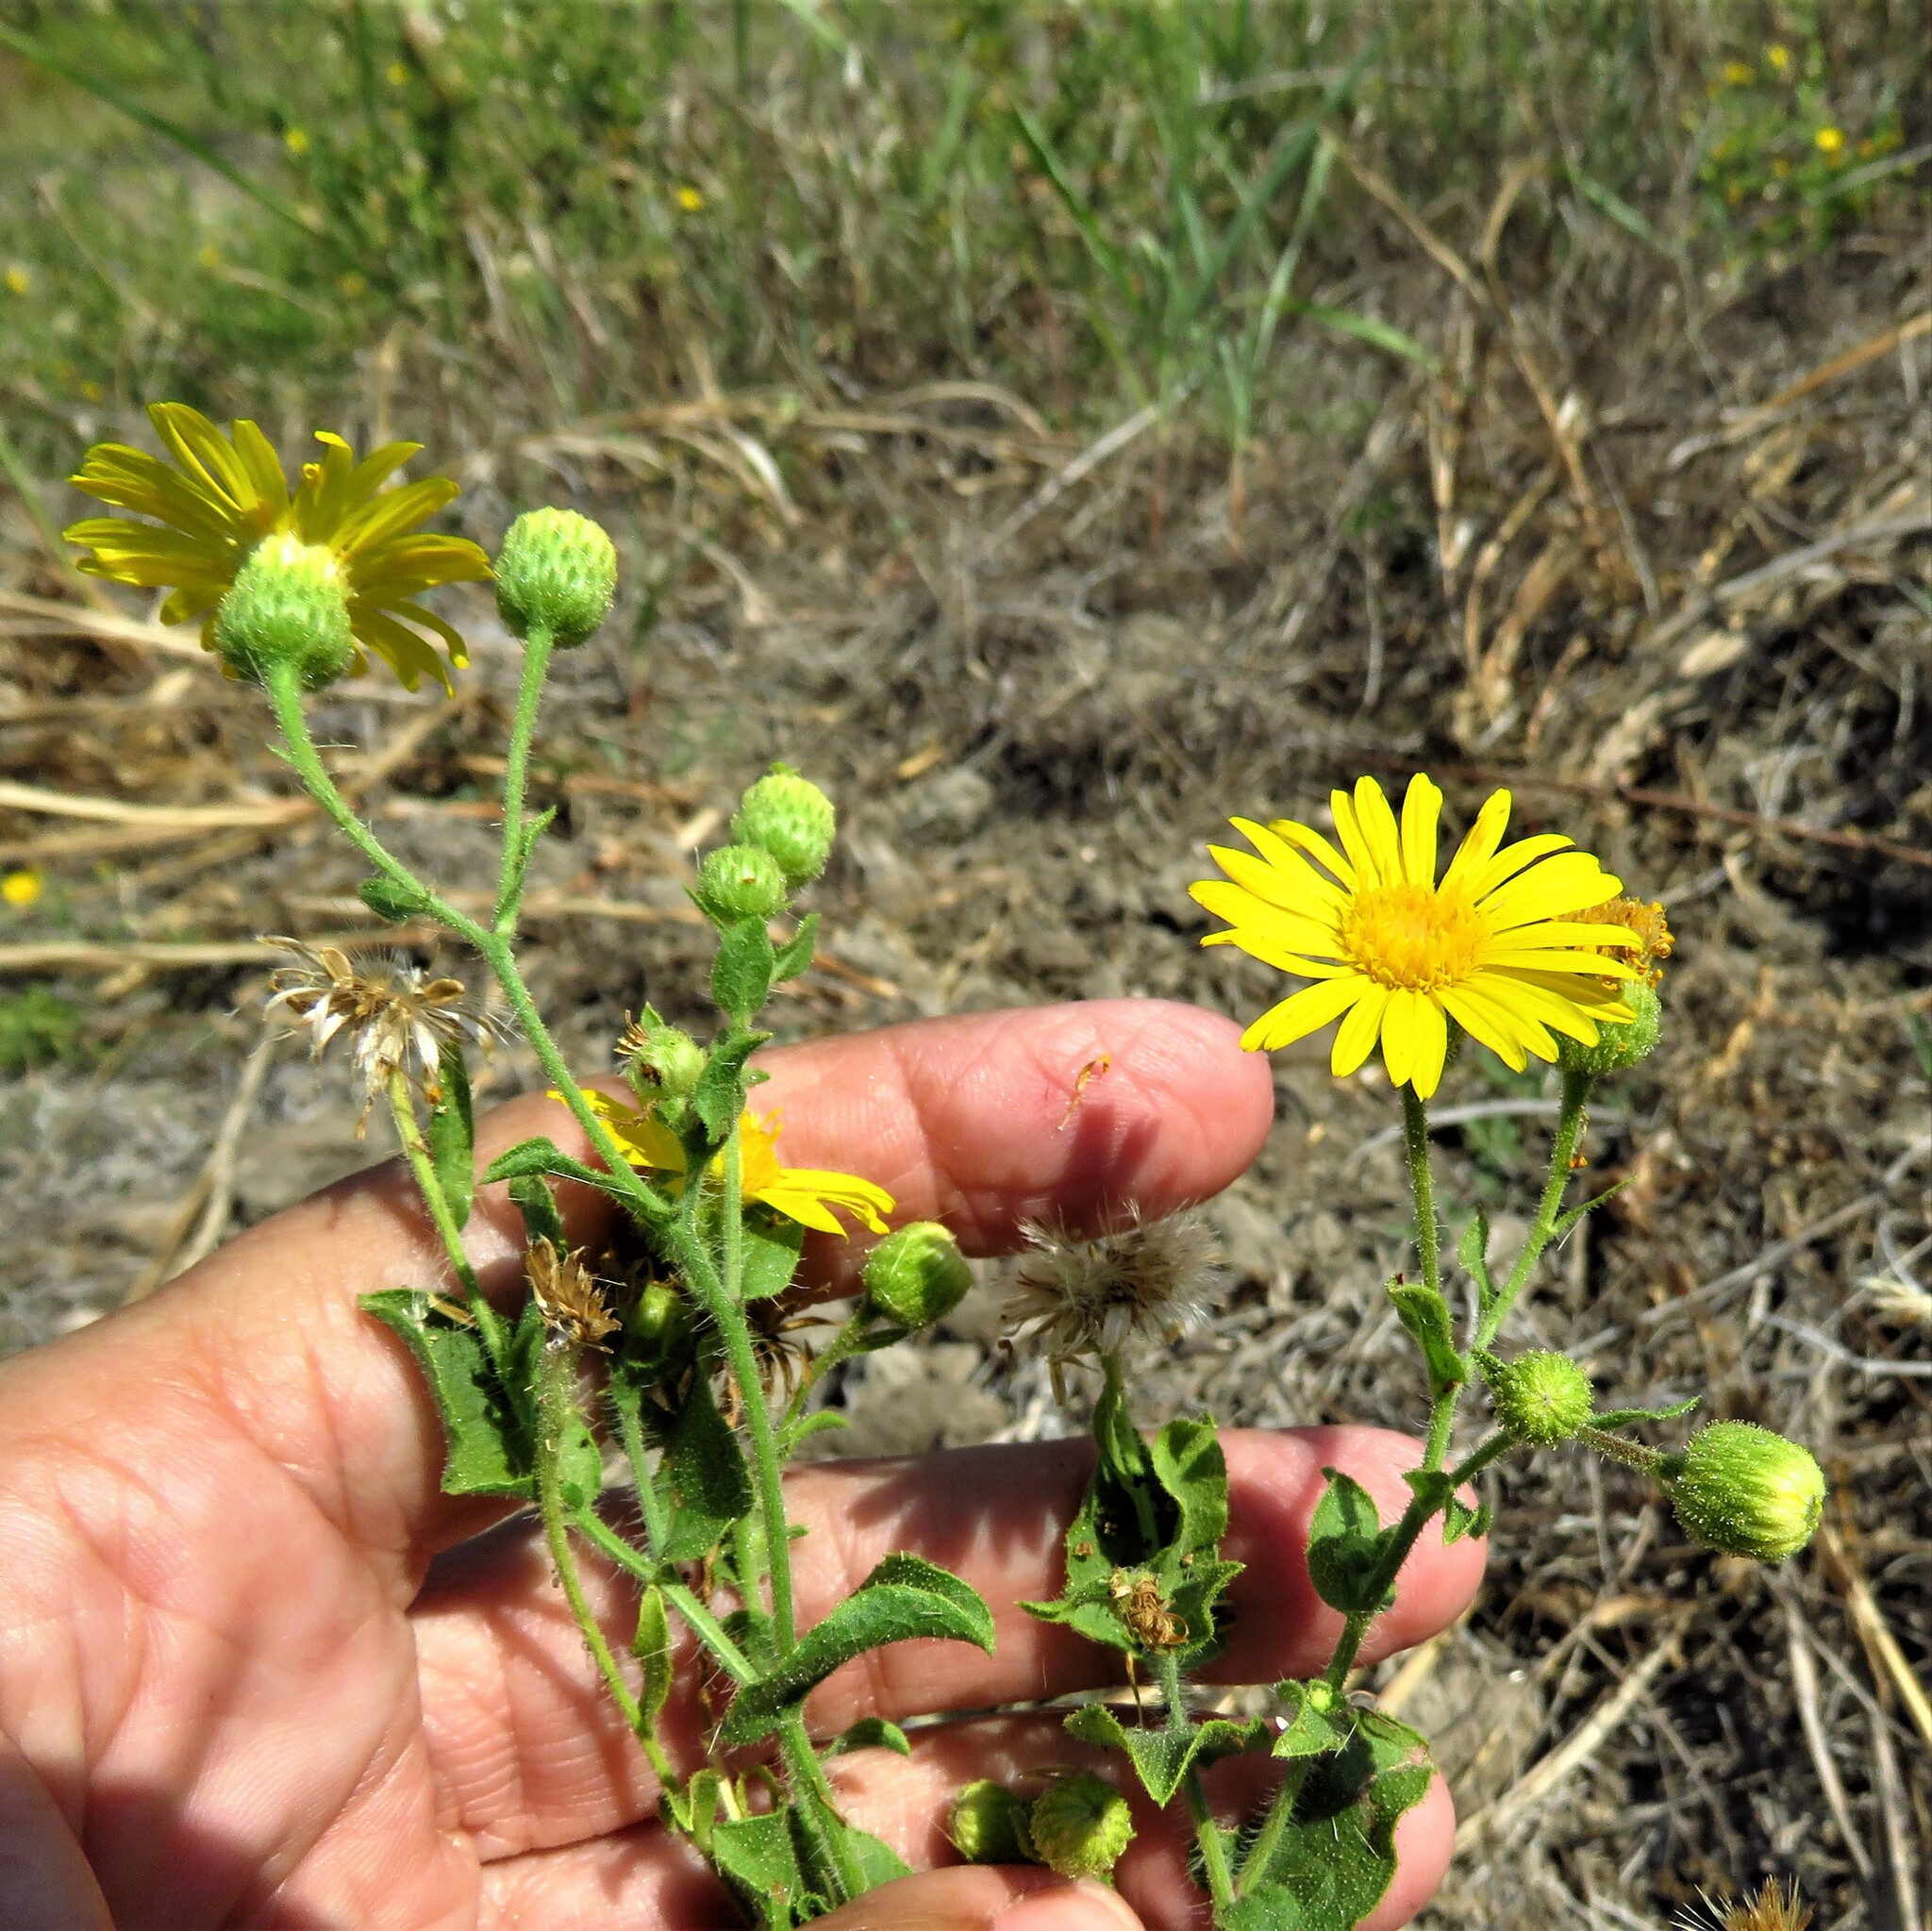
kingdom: Plantae
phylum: Tracheophyta
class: Magnoliopsida
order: Asterales
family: Asteraceae
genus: Heterotheca
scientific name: Heterotheca subaxillaris
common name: Camphorweed
